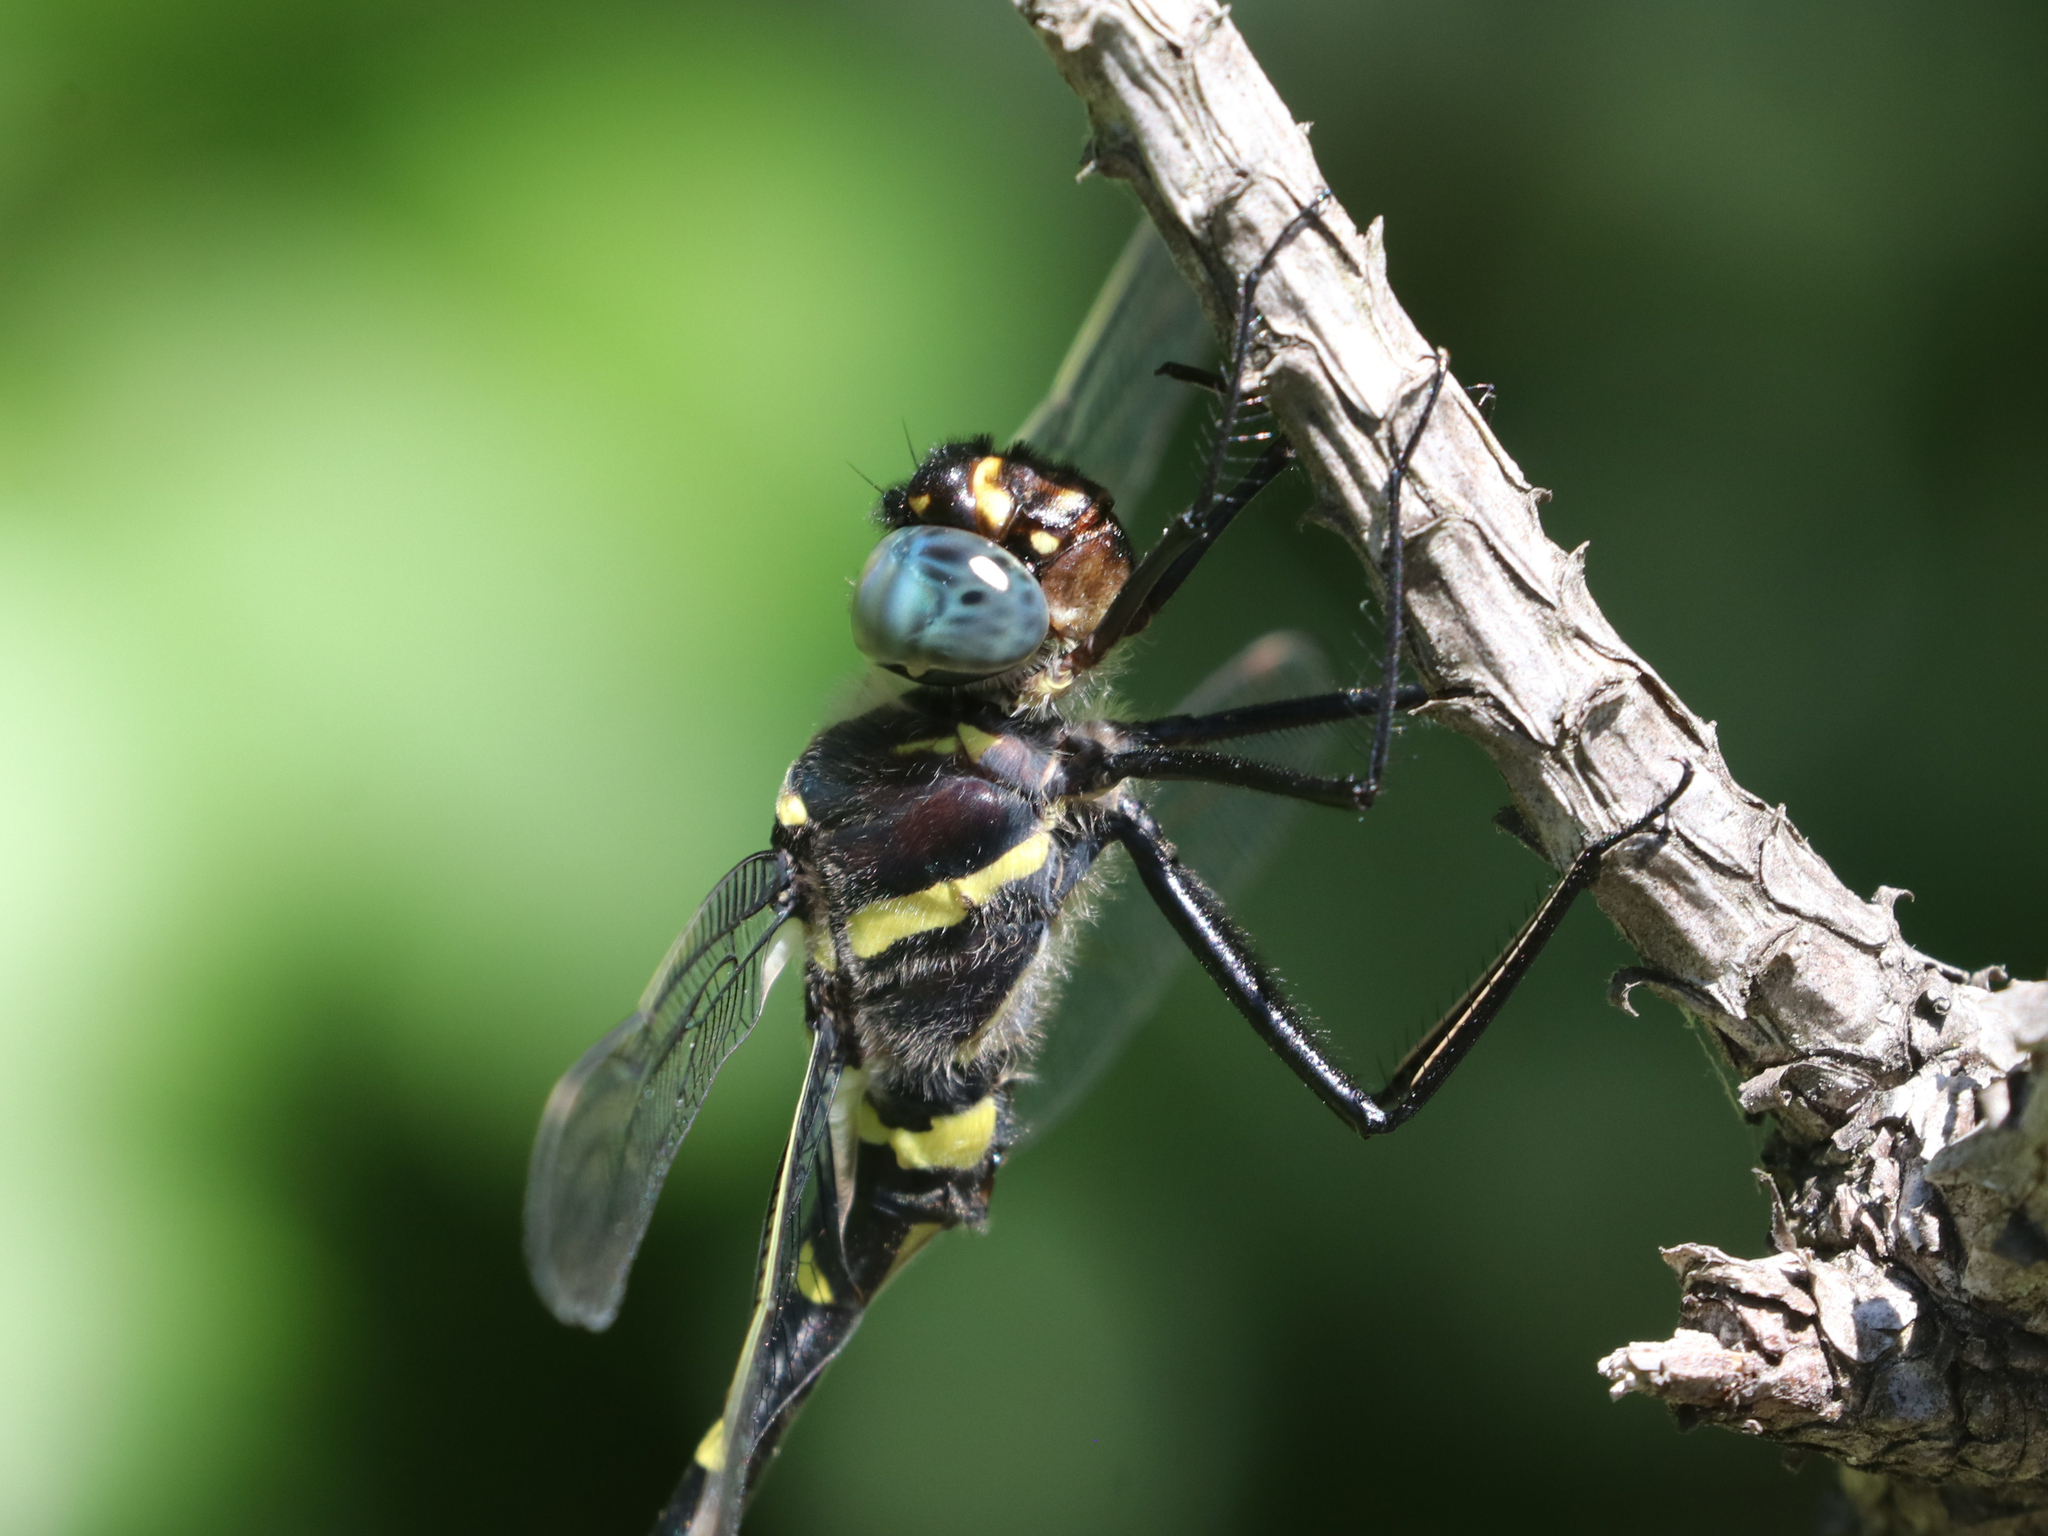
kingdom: Animalia
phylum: Arthropoda
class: Insecta
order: Odonata
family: Macromiidae
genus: Macromia
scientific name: Macromia alleghaniensis
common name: Allegheny river cruiser
